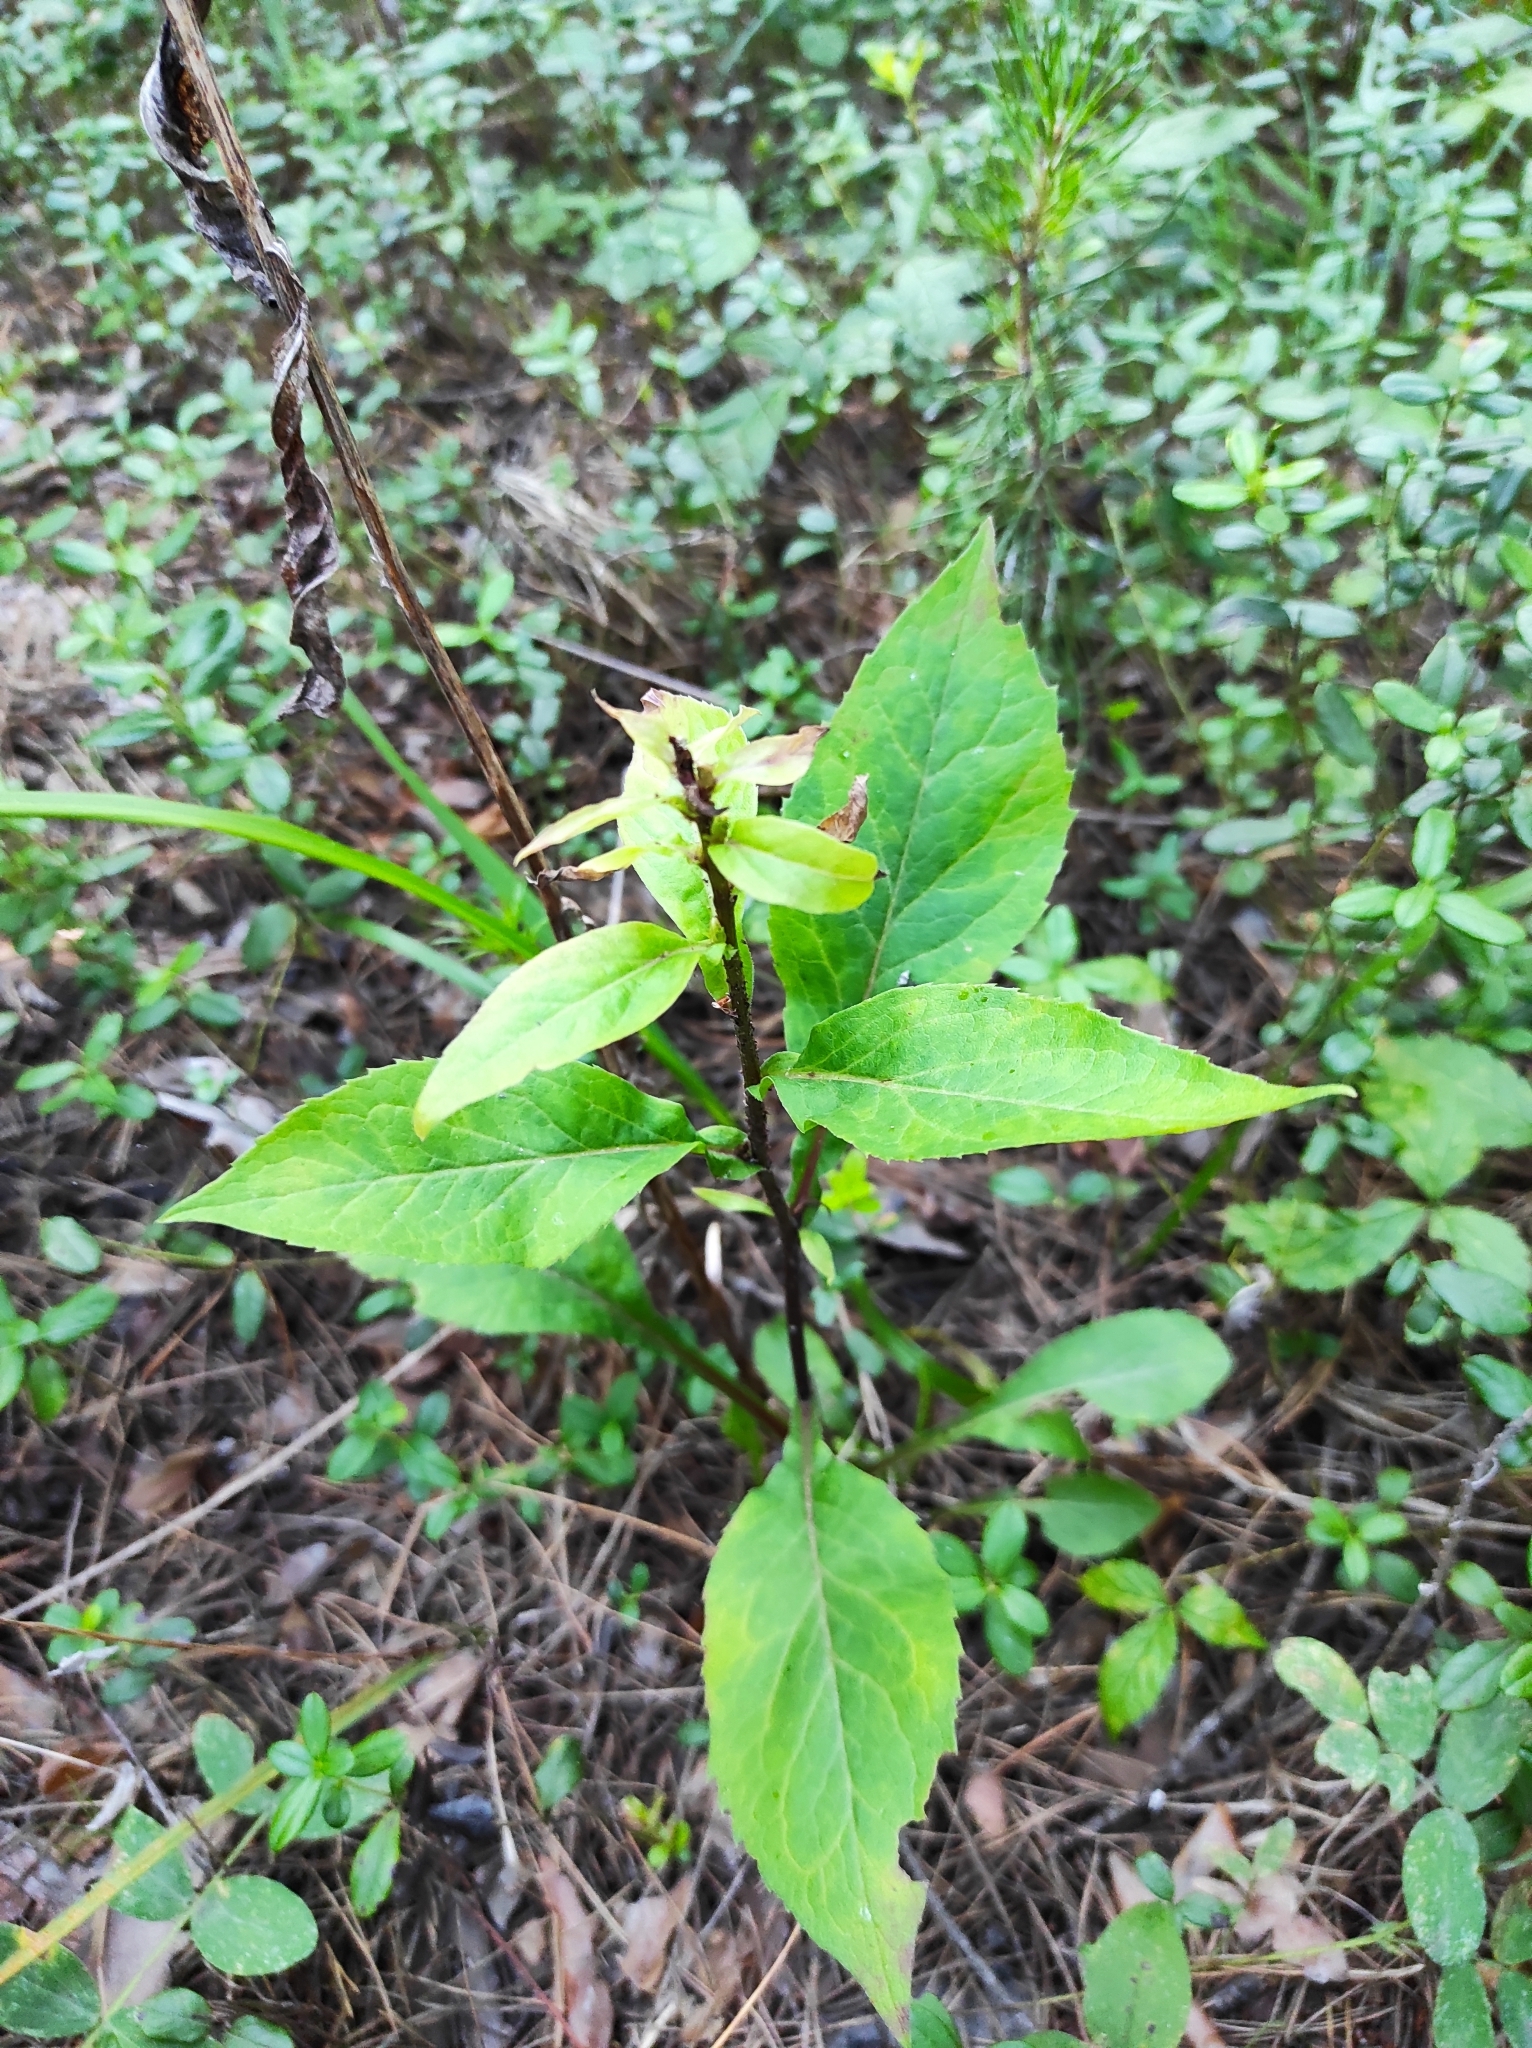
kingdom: Plantae
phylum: Tracheophyta
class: Magnoliopsida
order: Asterales
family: Asteraceae
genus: Solidago
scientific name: Solidago virgaurea
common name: Goldenrod
